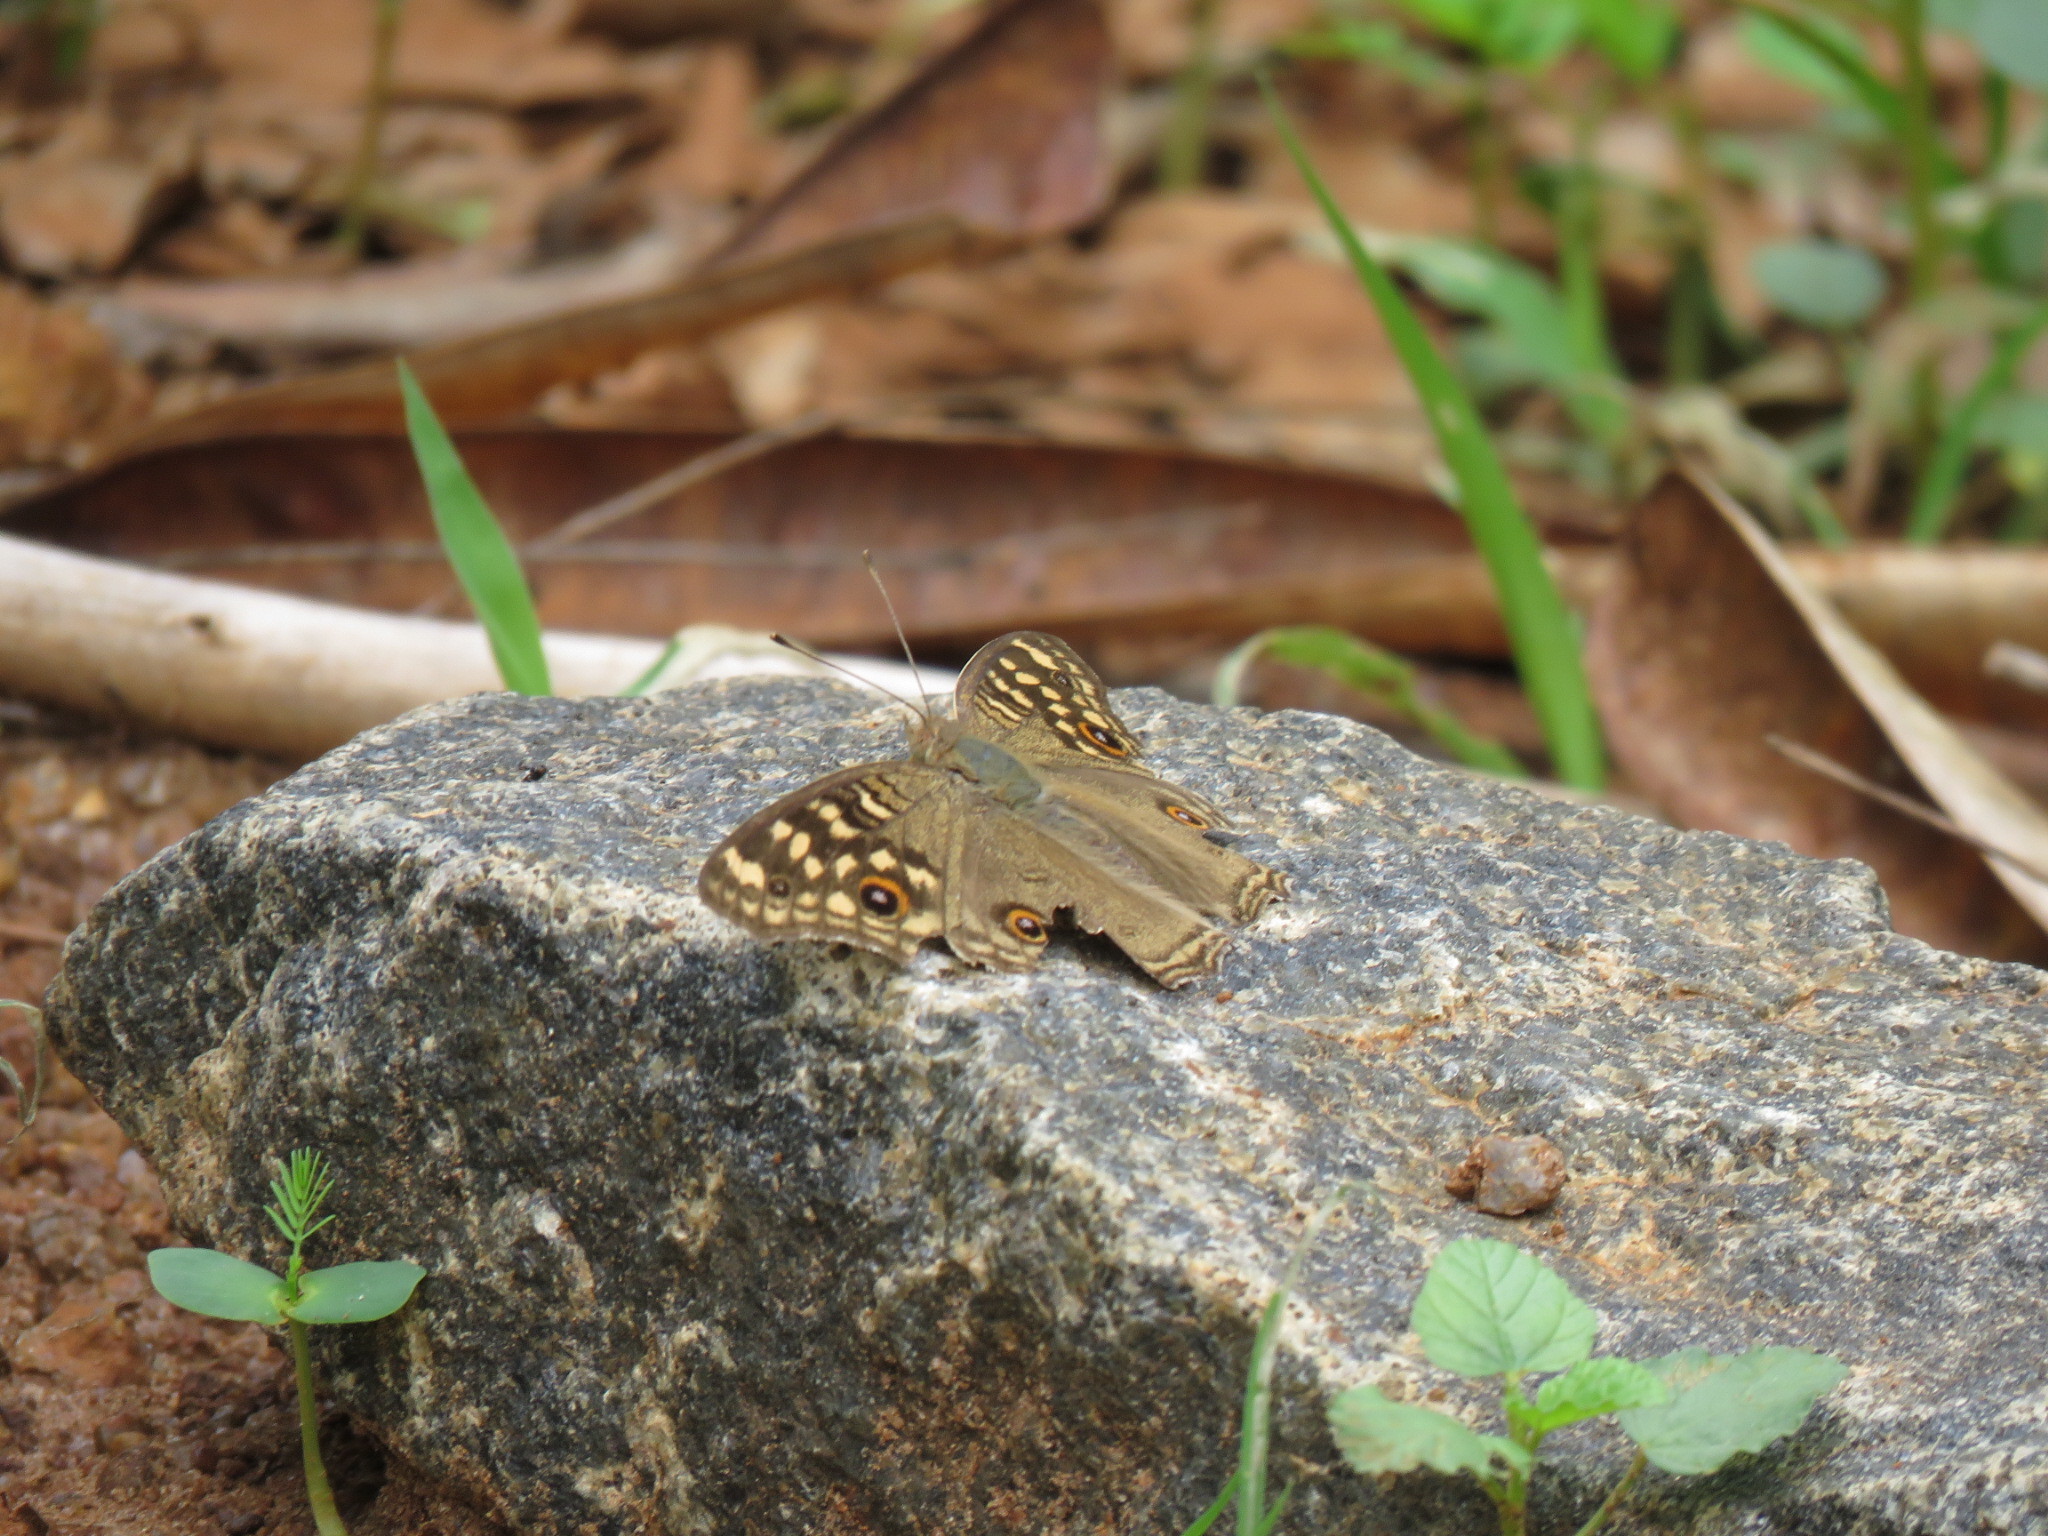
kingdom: Animalia
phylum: Arthropoda
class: Insecta
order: Lepidoptera
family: Nymphalidae
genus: Junonia
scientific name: Junonia lemonias
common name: Lemon pansy
